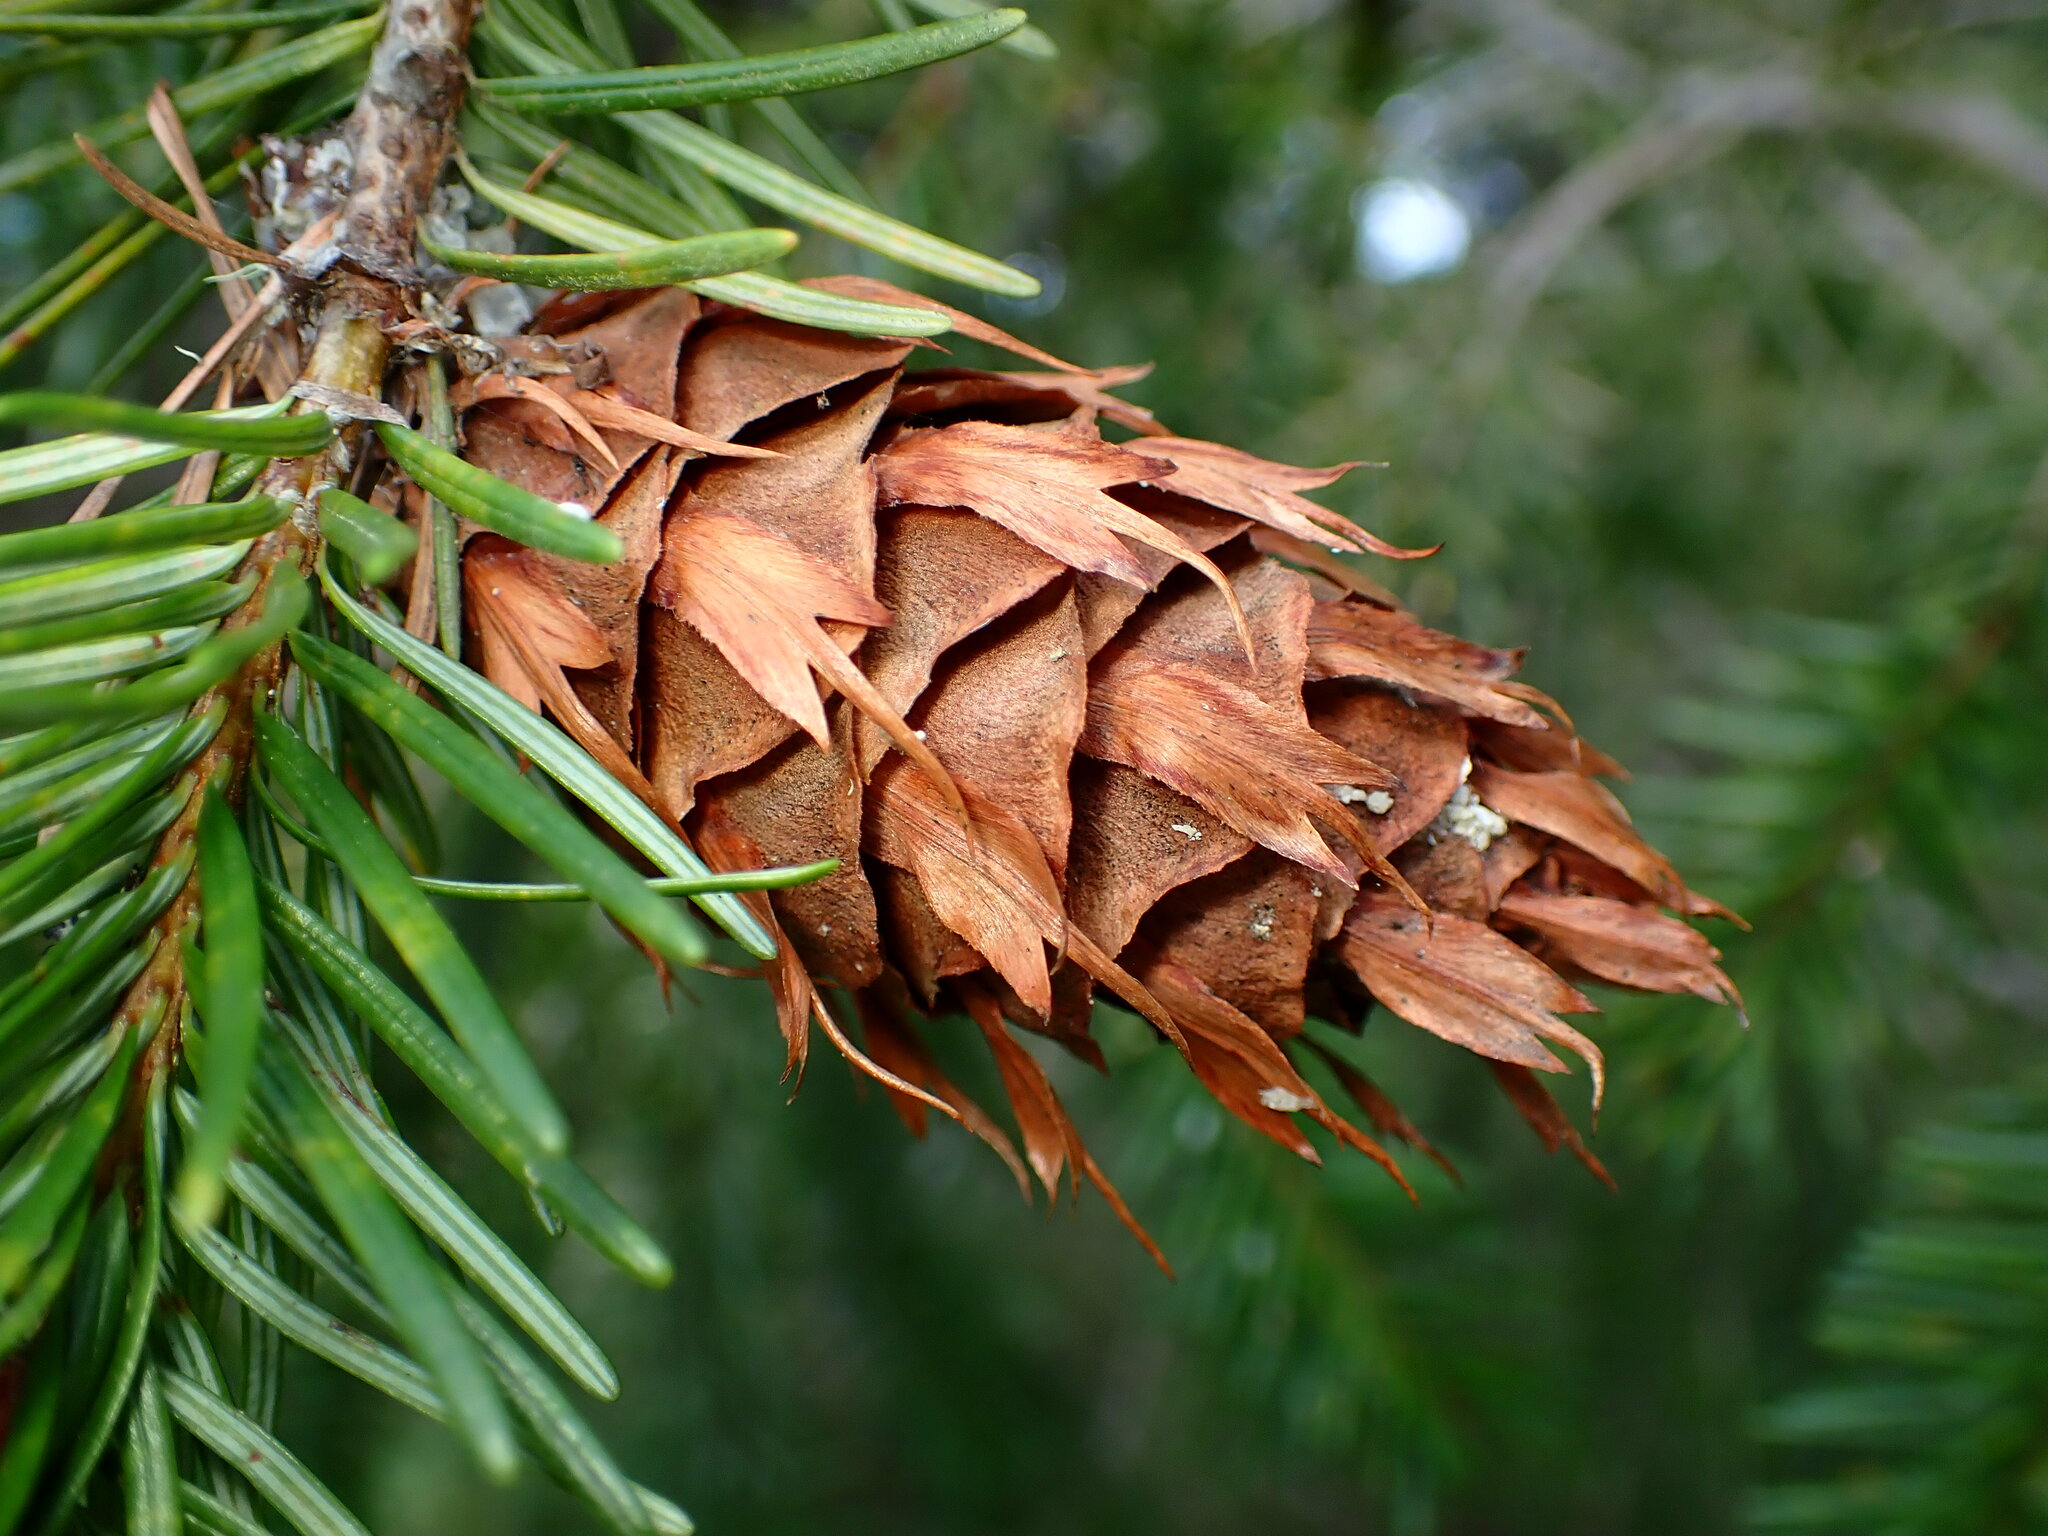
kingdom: Plantae
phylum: Tracheophyta
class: Pinopsida
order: Pinales
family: Pinaceae
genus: Pseudotsuga
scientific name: Pseudotsuga menziesii
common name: Douglas fir
